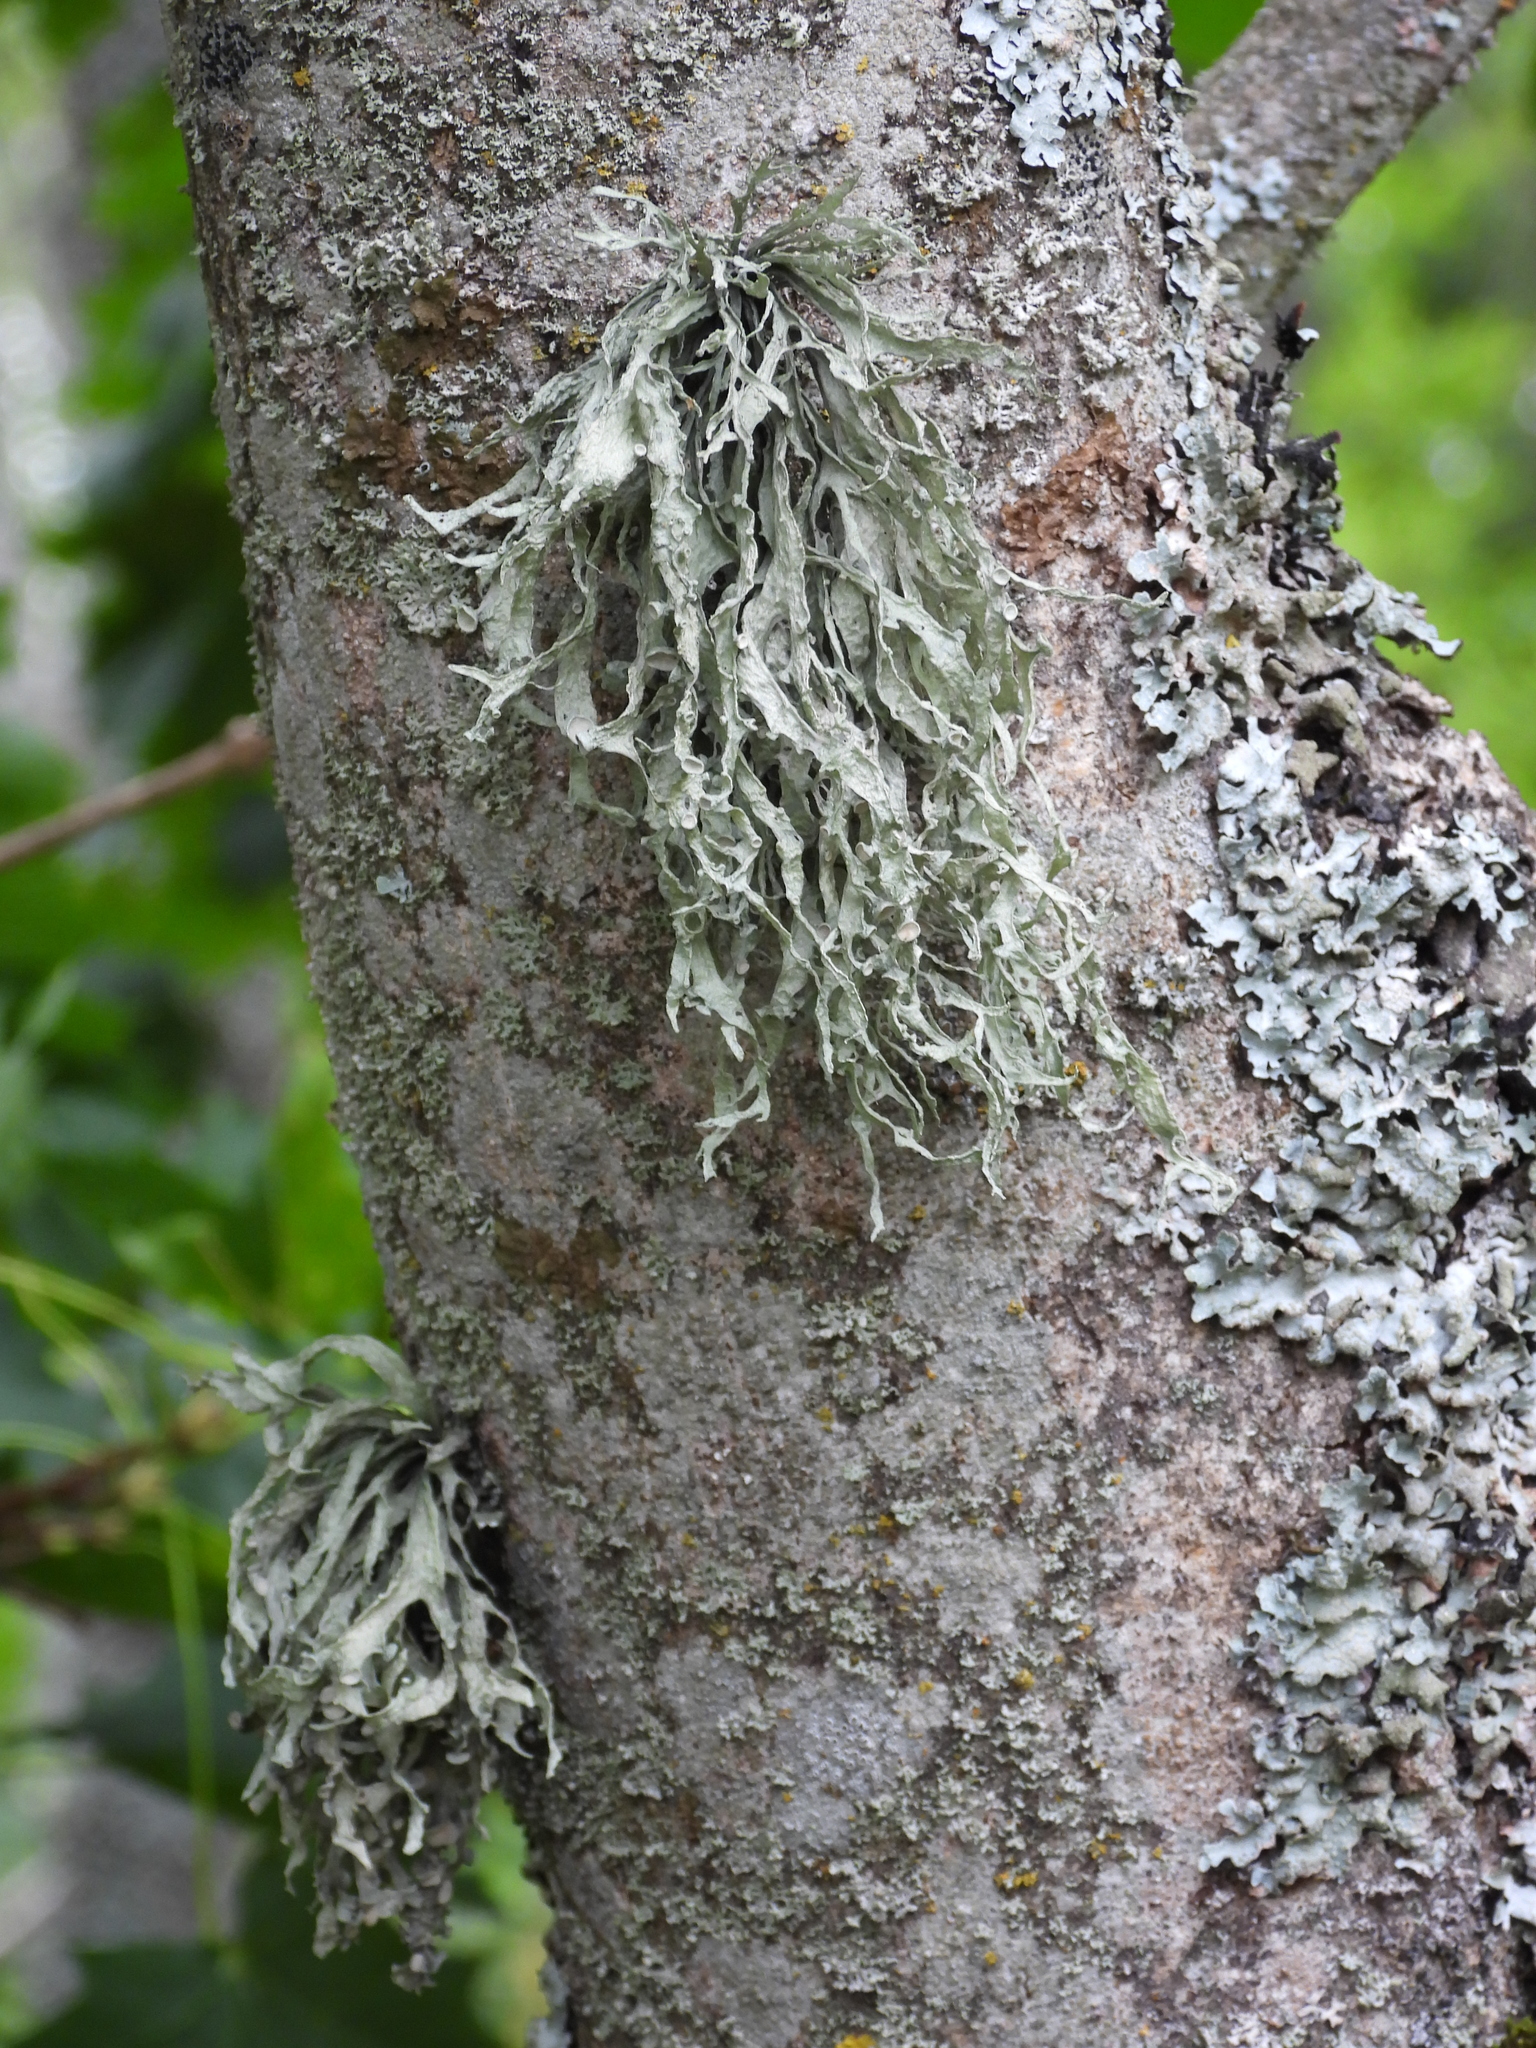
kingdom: Fungi
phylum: Ascomycota
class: Lecanoromycetes
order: Lecanorales
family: Ramalinaceae
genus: Ramalina
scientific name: Ramalina fraxinea
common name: Cartilage lichen
